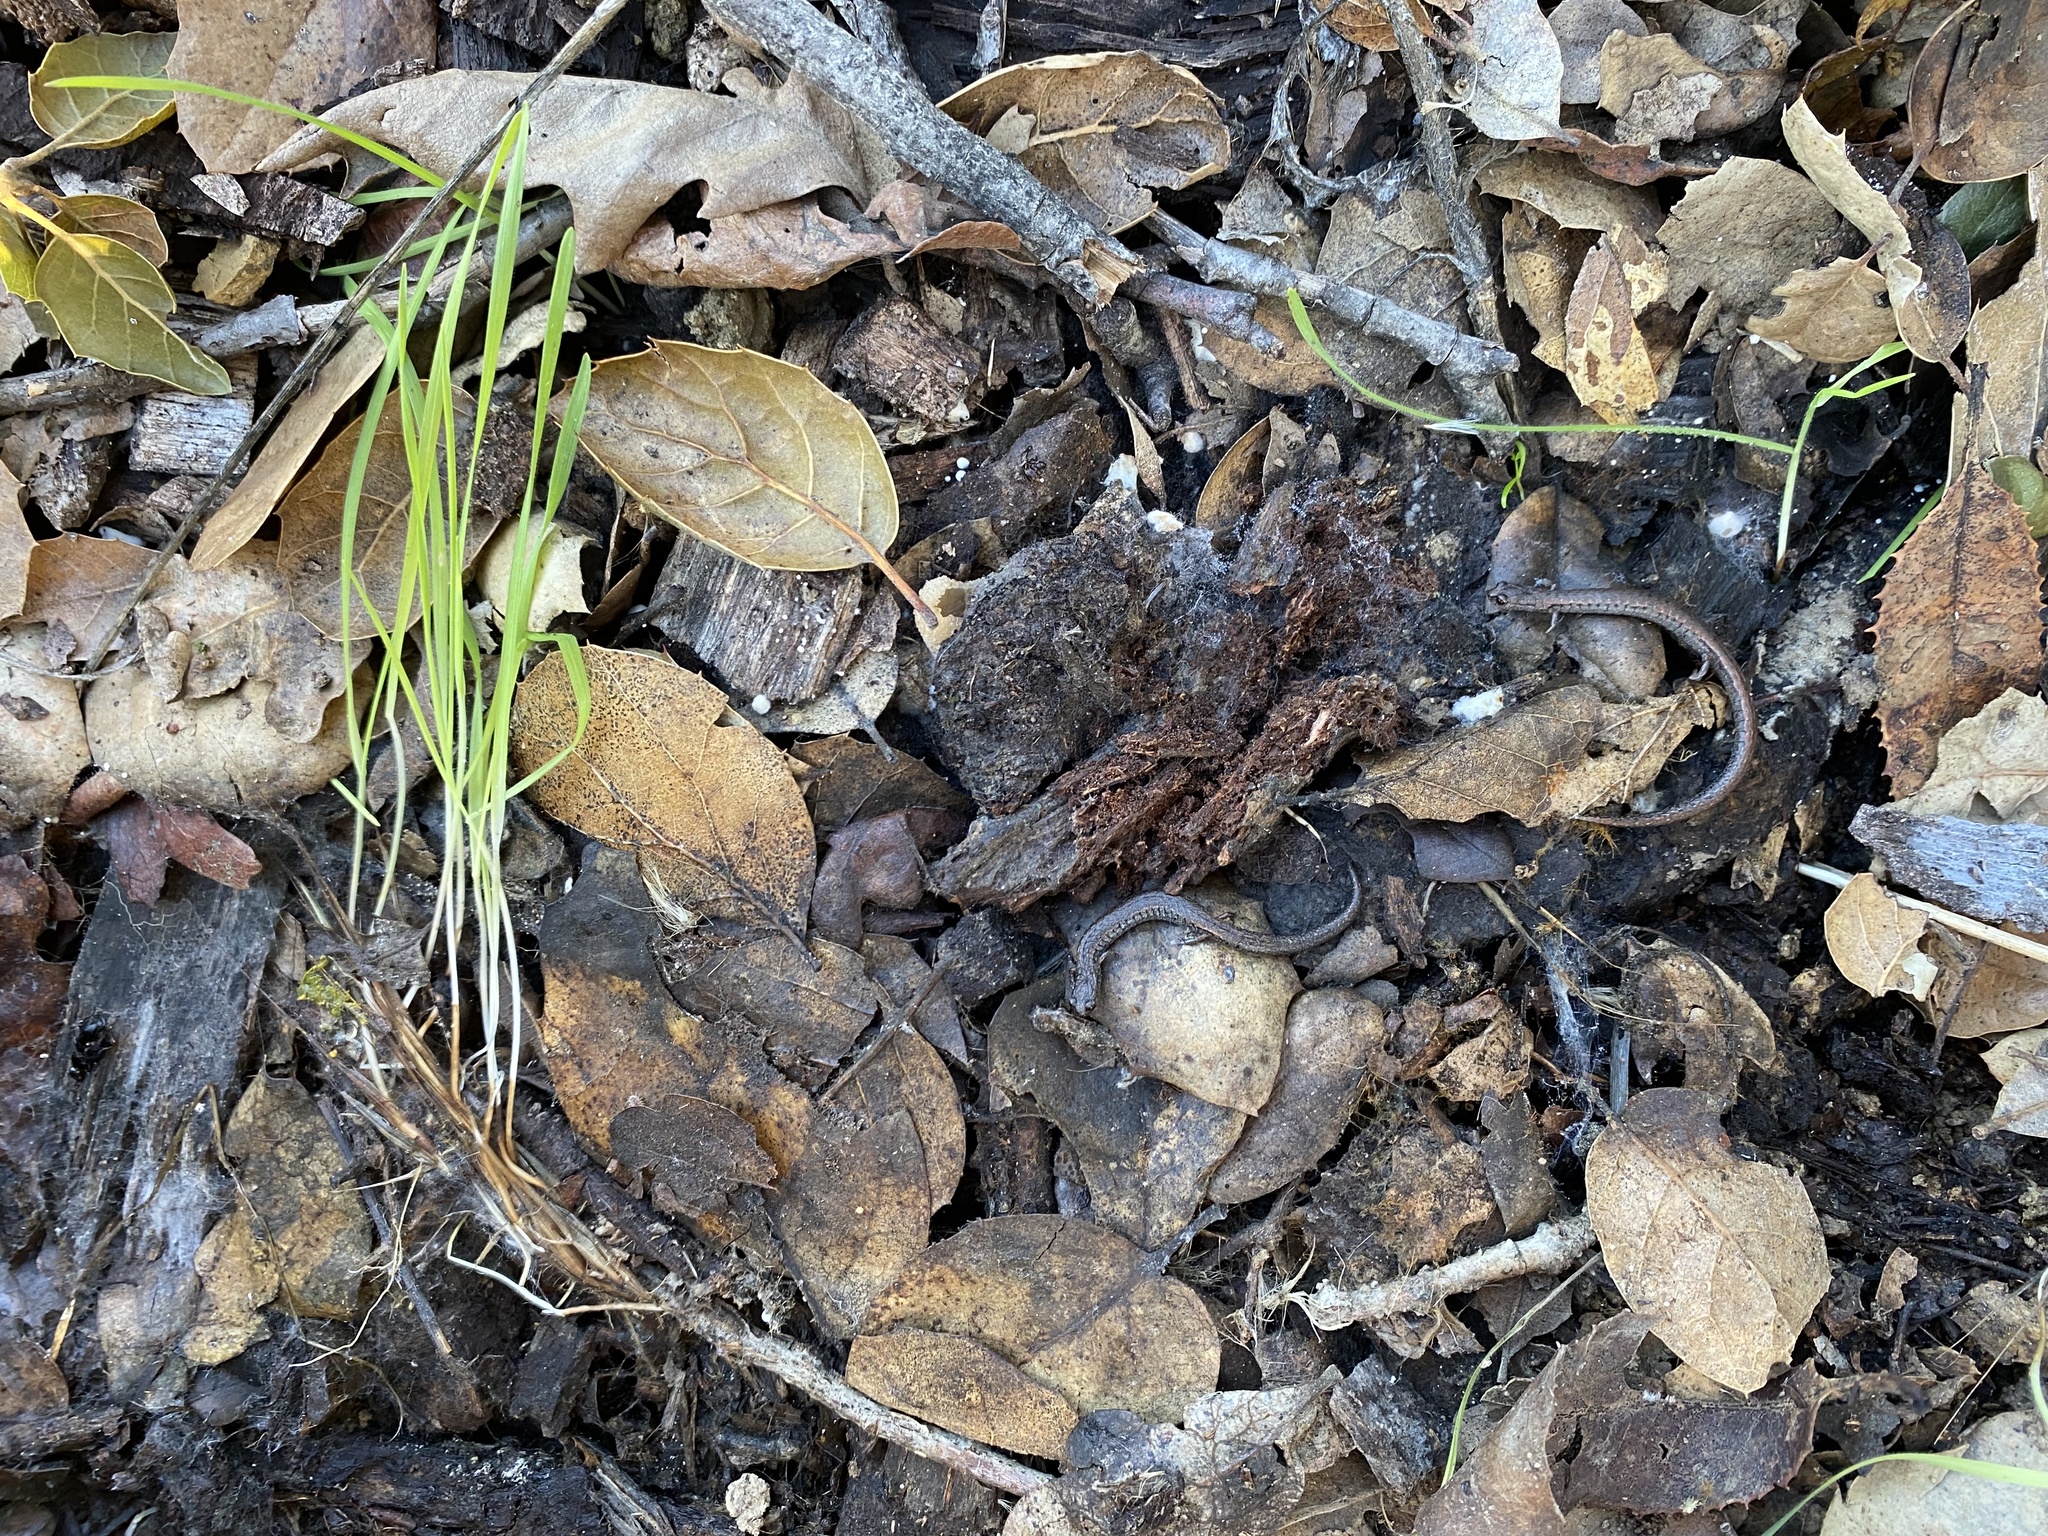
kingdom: Animalia
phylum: Chordata
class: Amphibia
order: Caudata
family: Plethodontidae
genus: Batrachoseps
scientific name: Batrachoseps attenuatus
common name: California slender salamander
